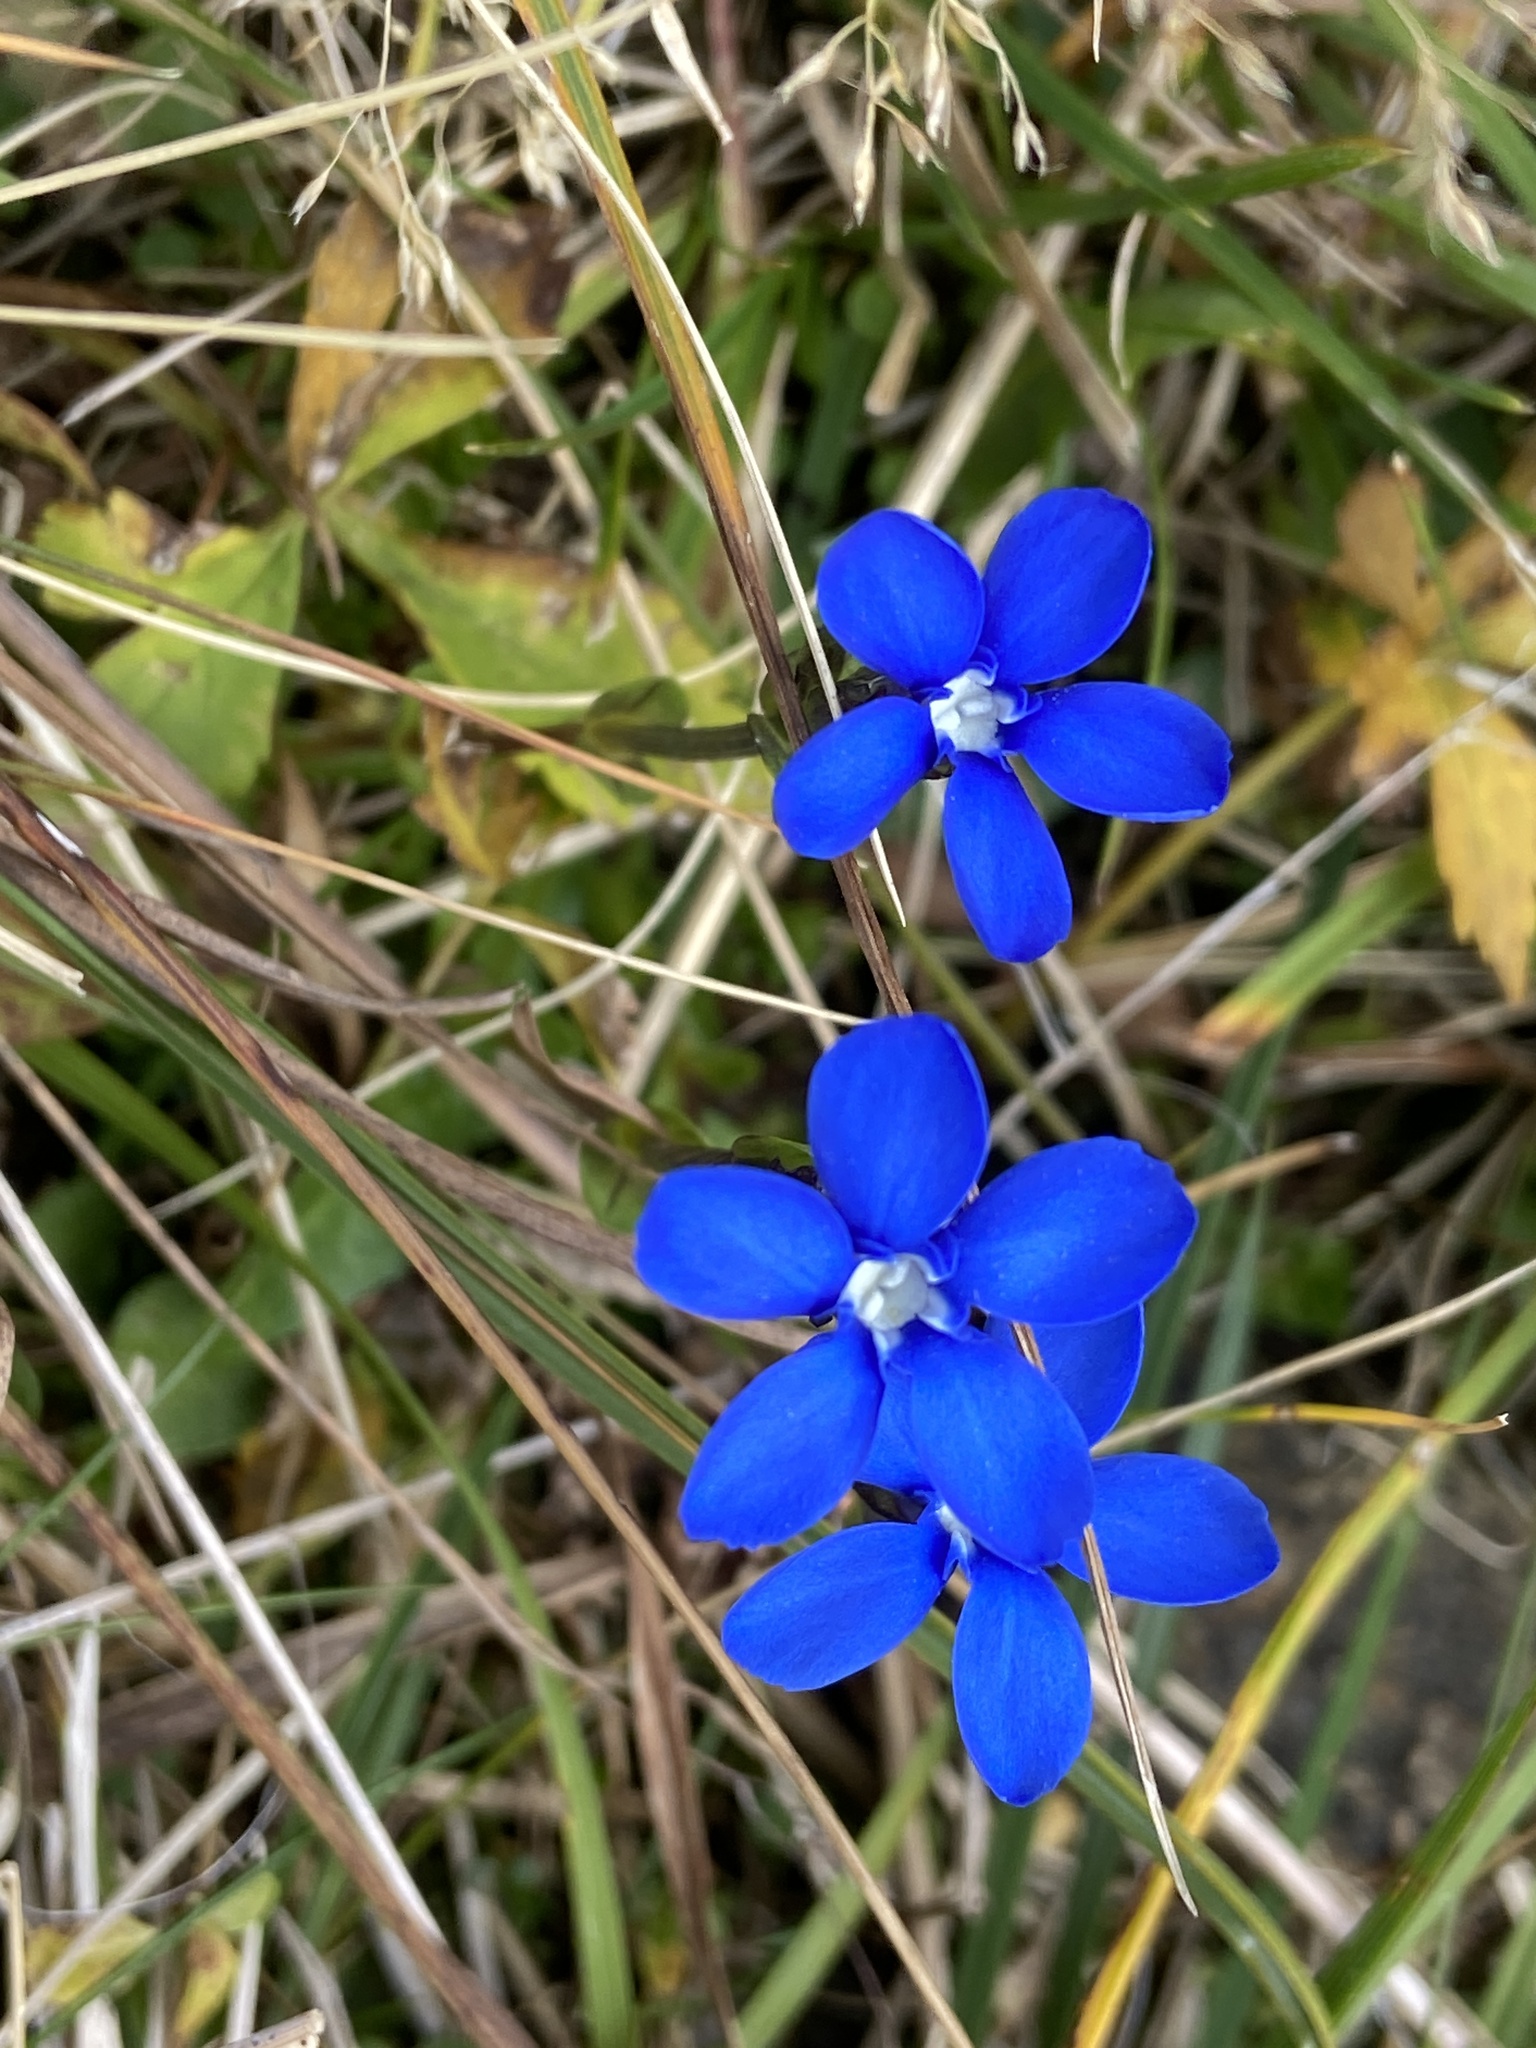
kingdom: Plantae
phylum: Tracheophyta
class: Magnoliopsida
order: Gentianales
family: Gentianaceae
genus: Gentiana
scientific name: Gentiana bavarica
